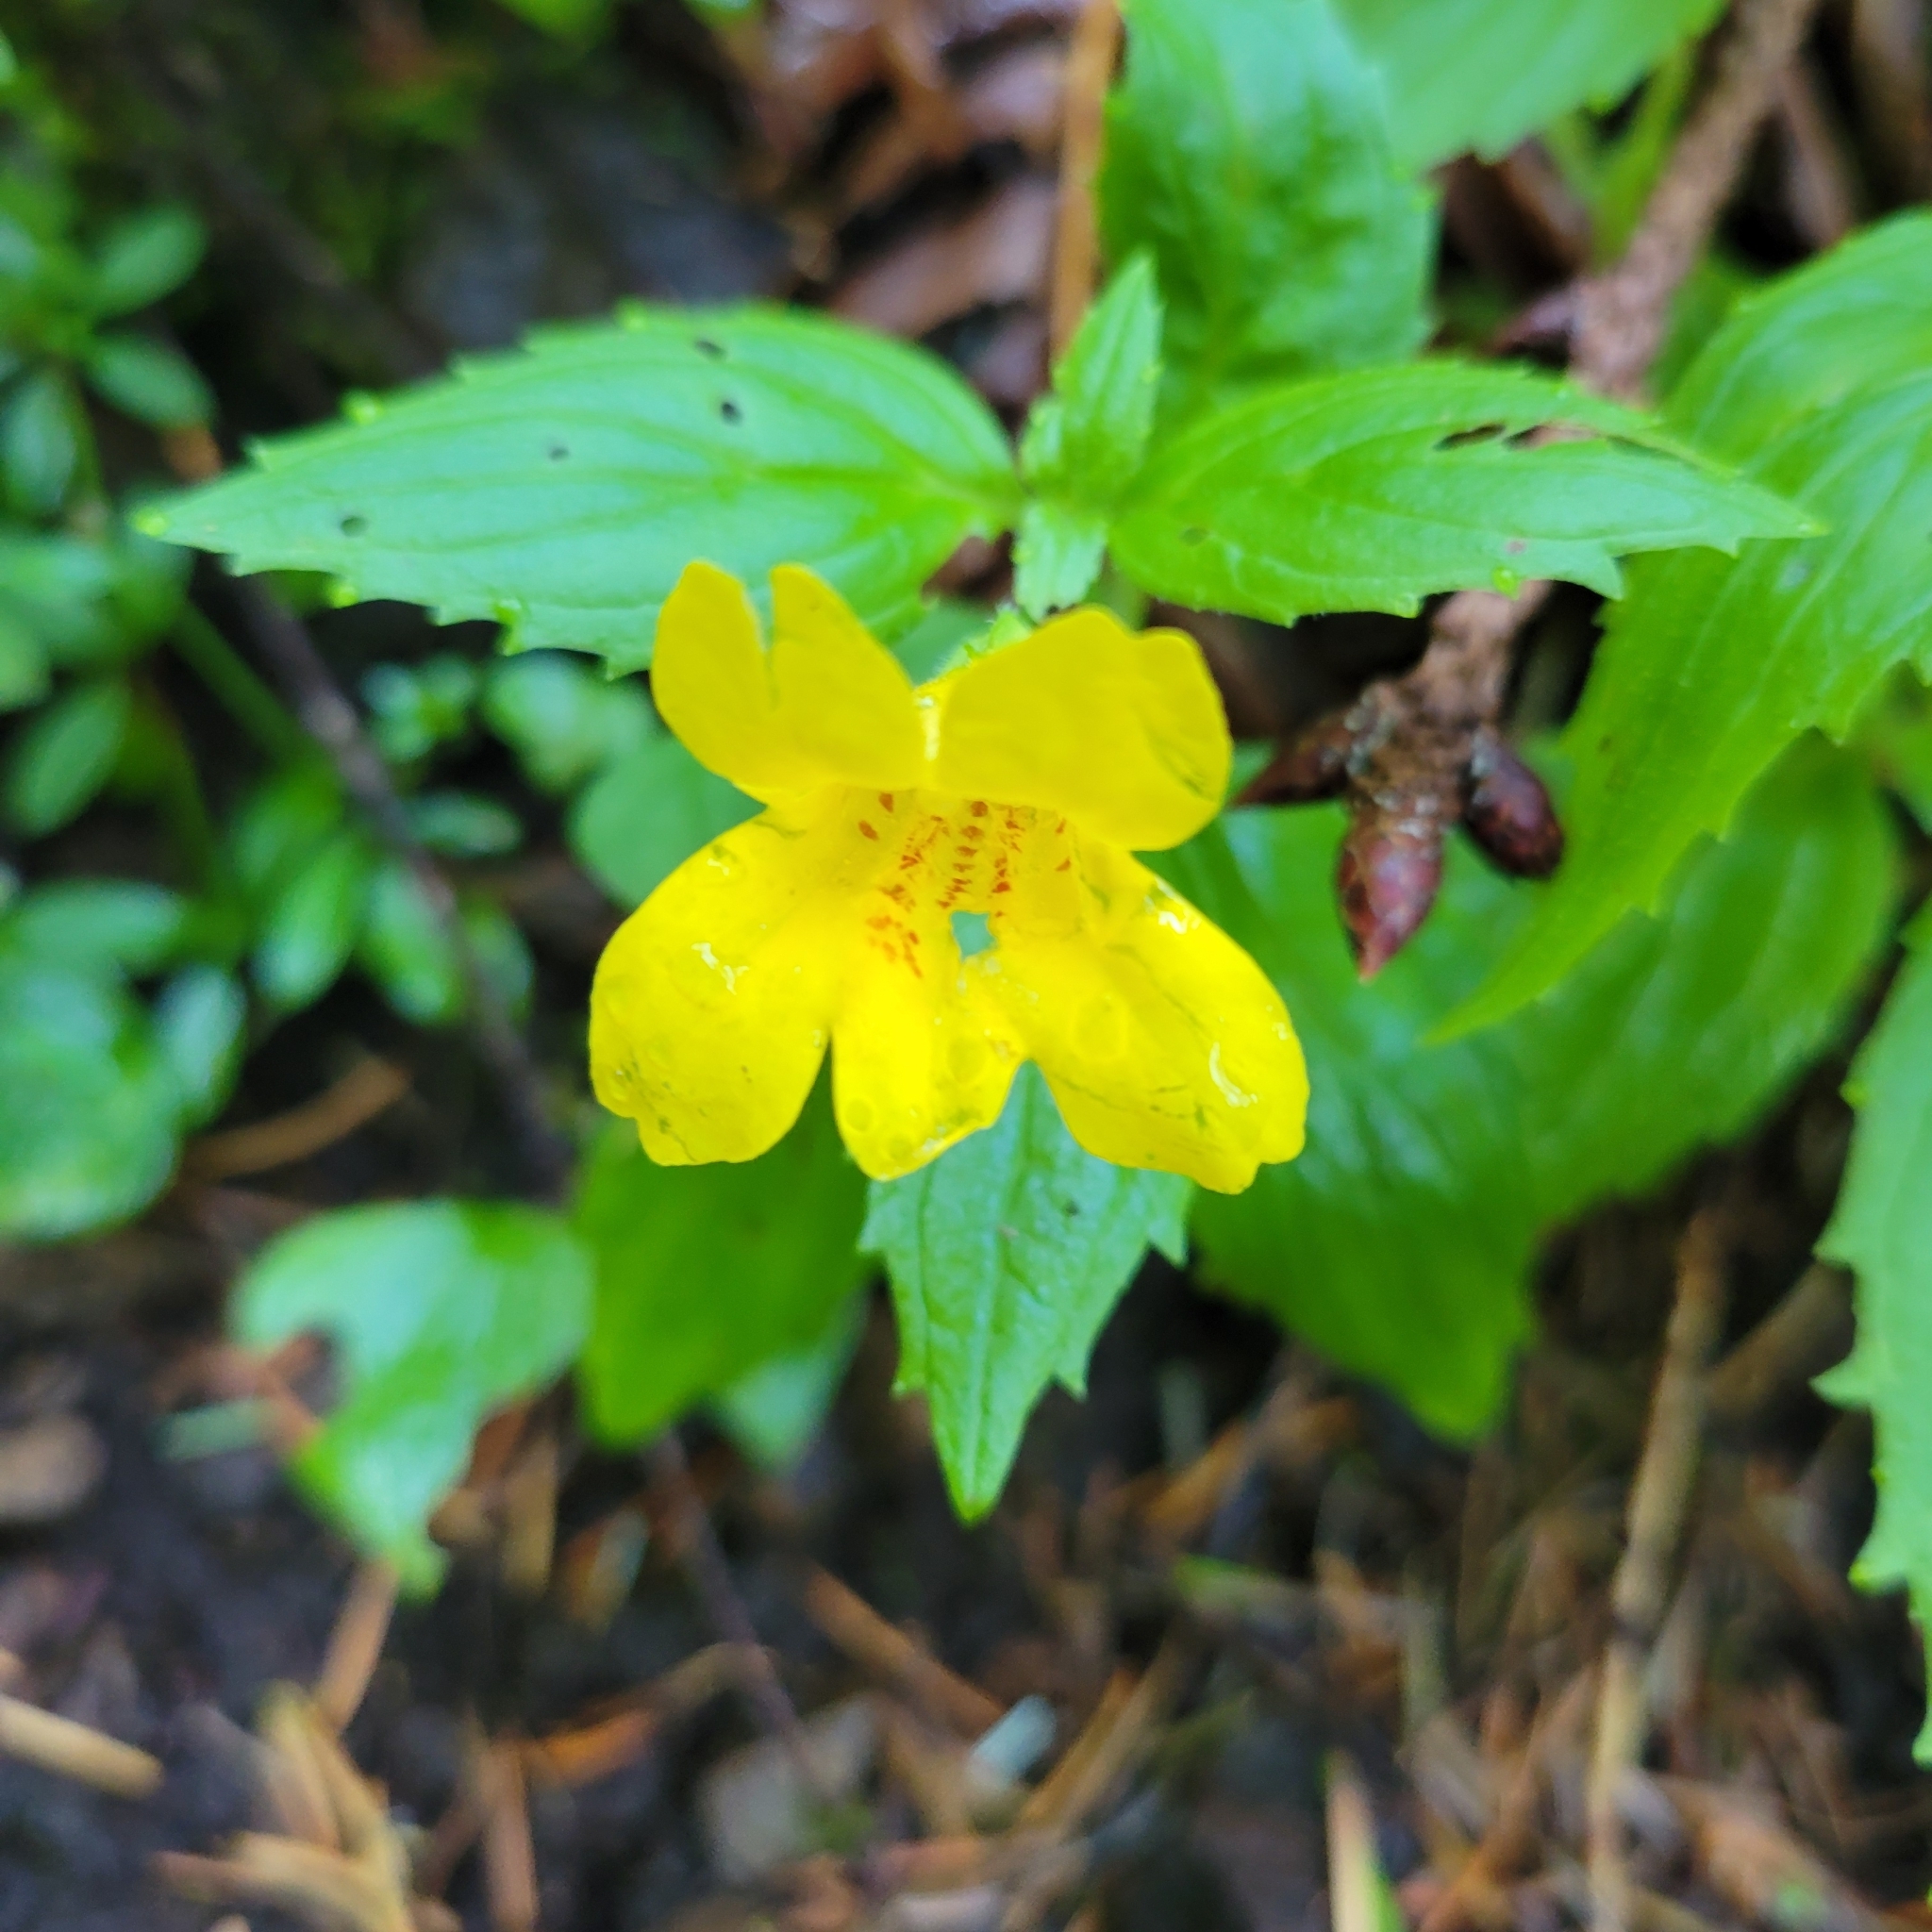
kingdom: Plantae
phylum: Tracheophyta
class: Magnoliopsida
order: Lamiales
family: Phrymaceae
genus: Erythranthe
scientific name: Erythranthe dentata
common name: Coastal monkeyflower
